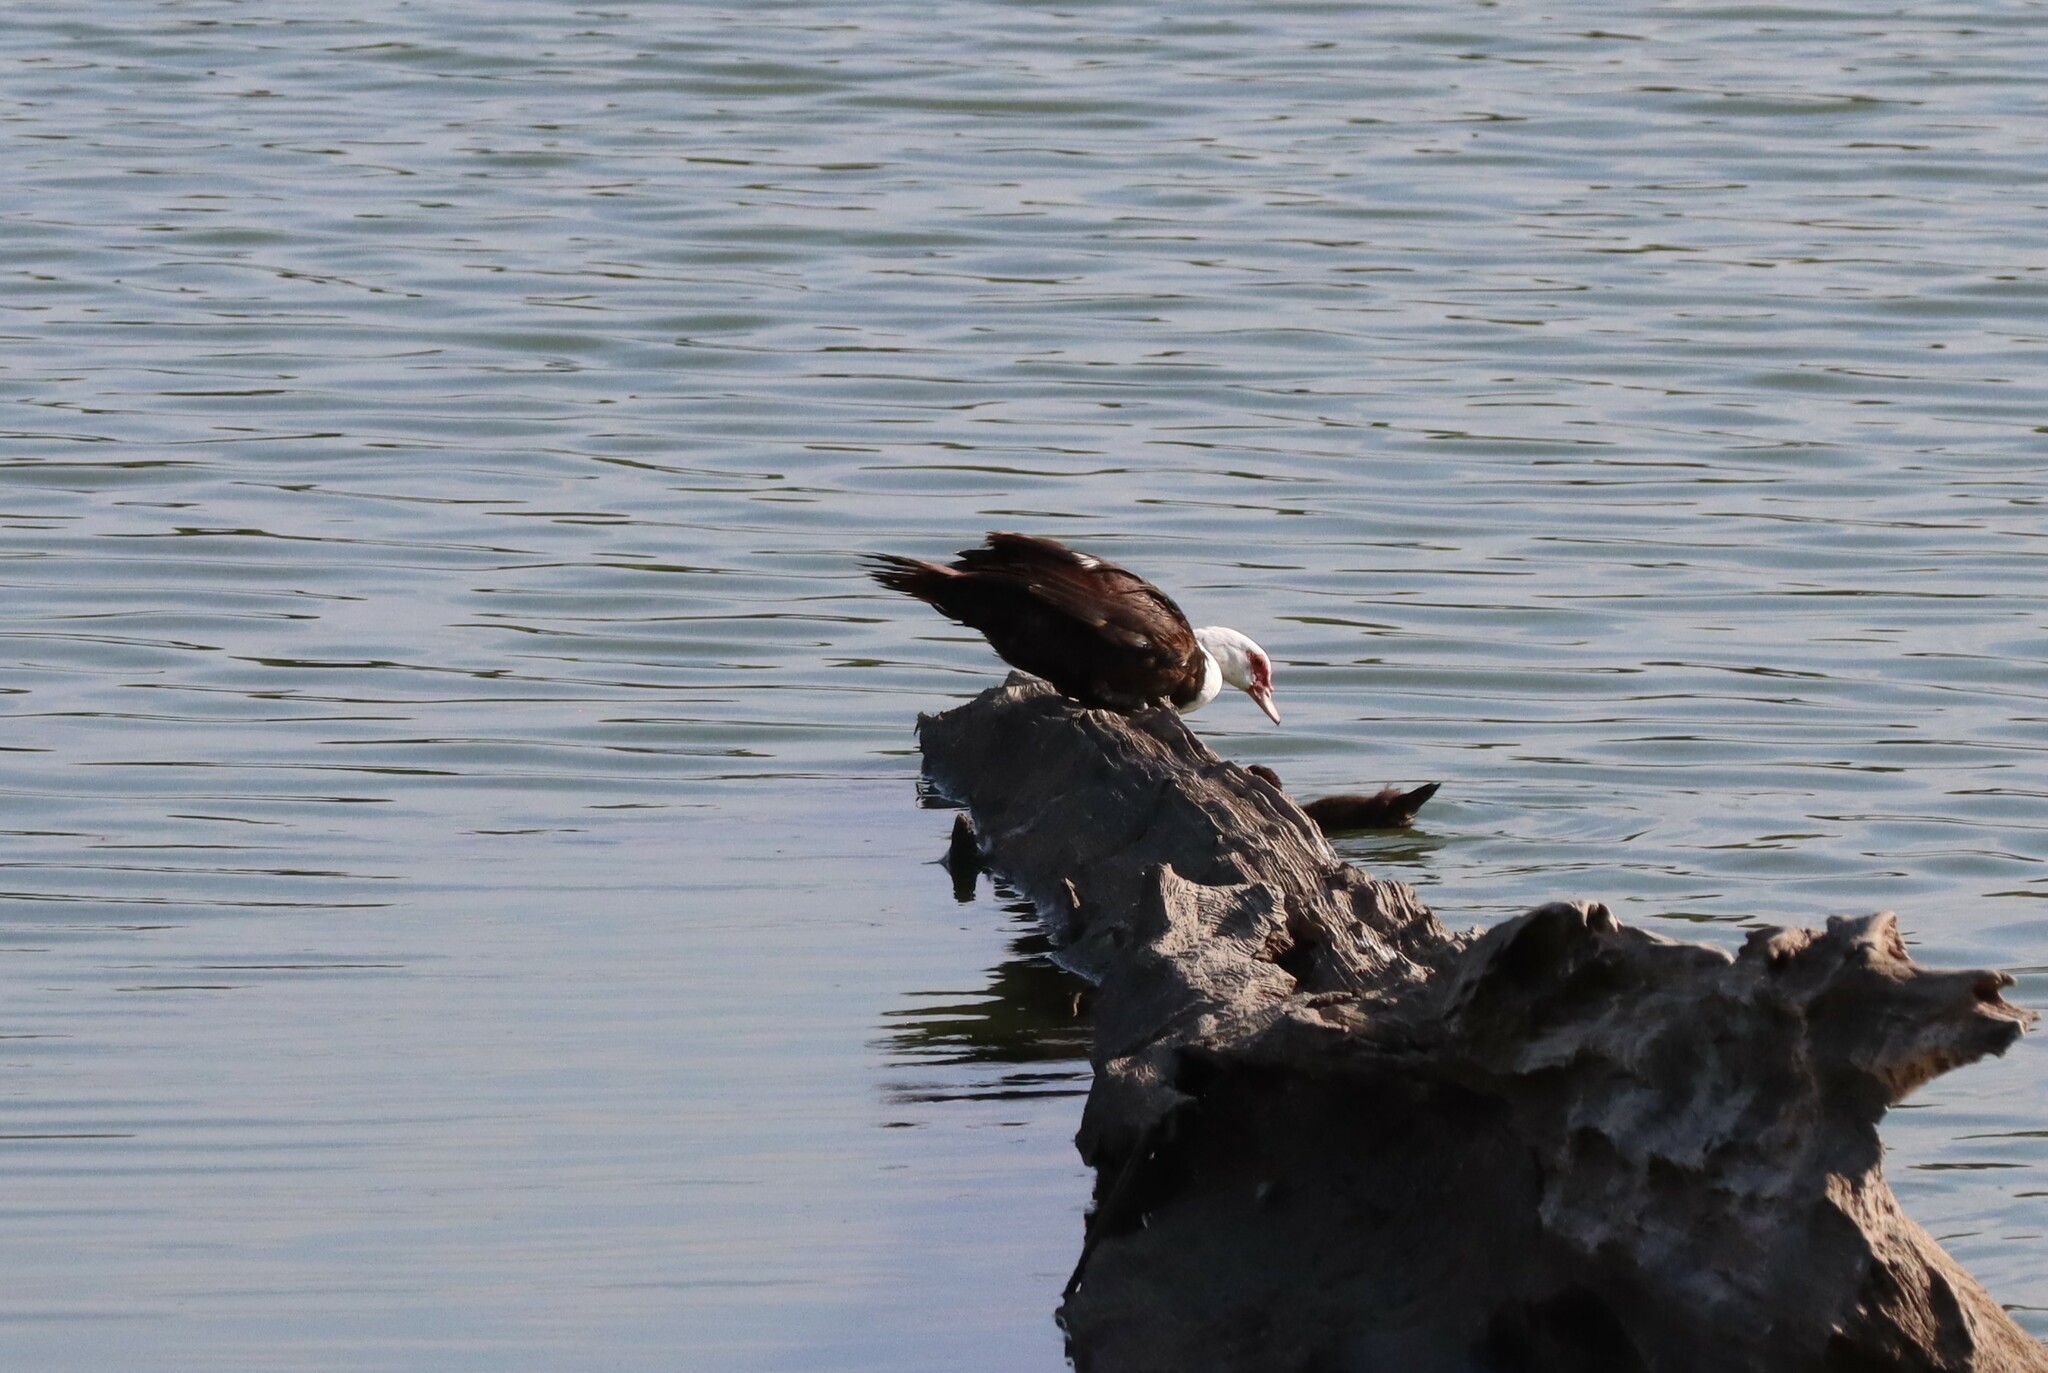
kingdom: Animalia
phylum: Chordata
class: Aves
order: Anseriformes
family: Anatidae
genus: Cairina
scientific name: Cairina moschata
